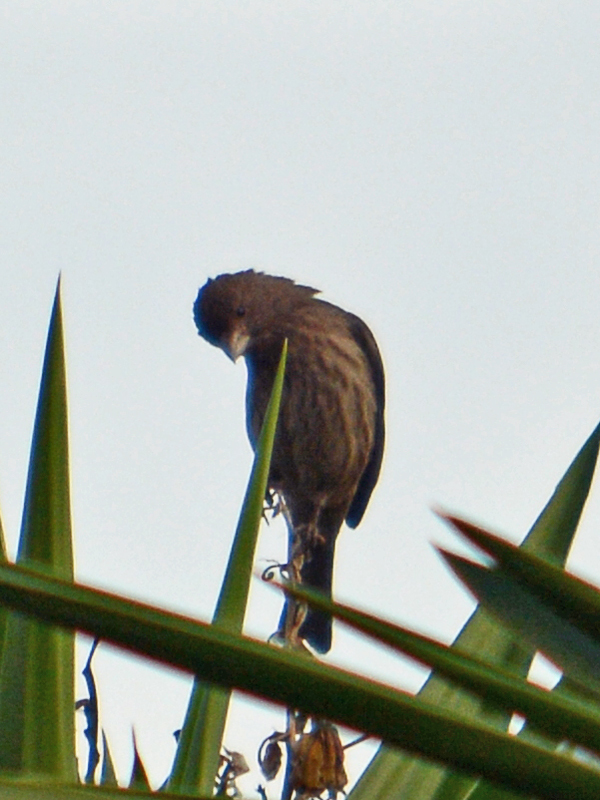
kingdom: Animalia
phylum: Chordata
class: Aves
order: Passeriformes
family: Fringillidae
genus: Haemorhous
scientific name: Haemorhous mexicanus
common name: House finch
